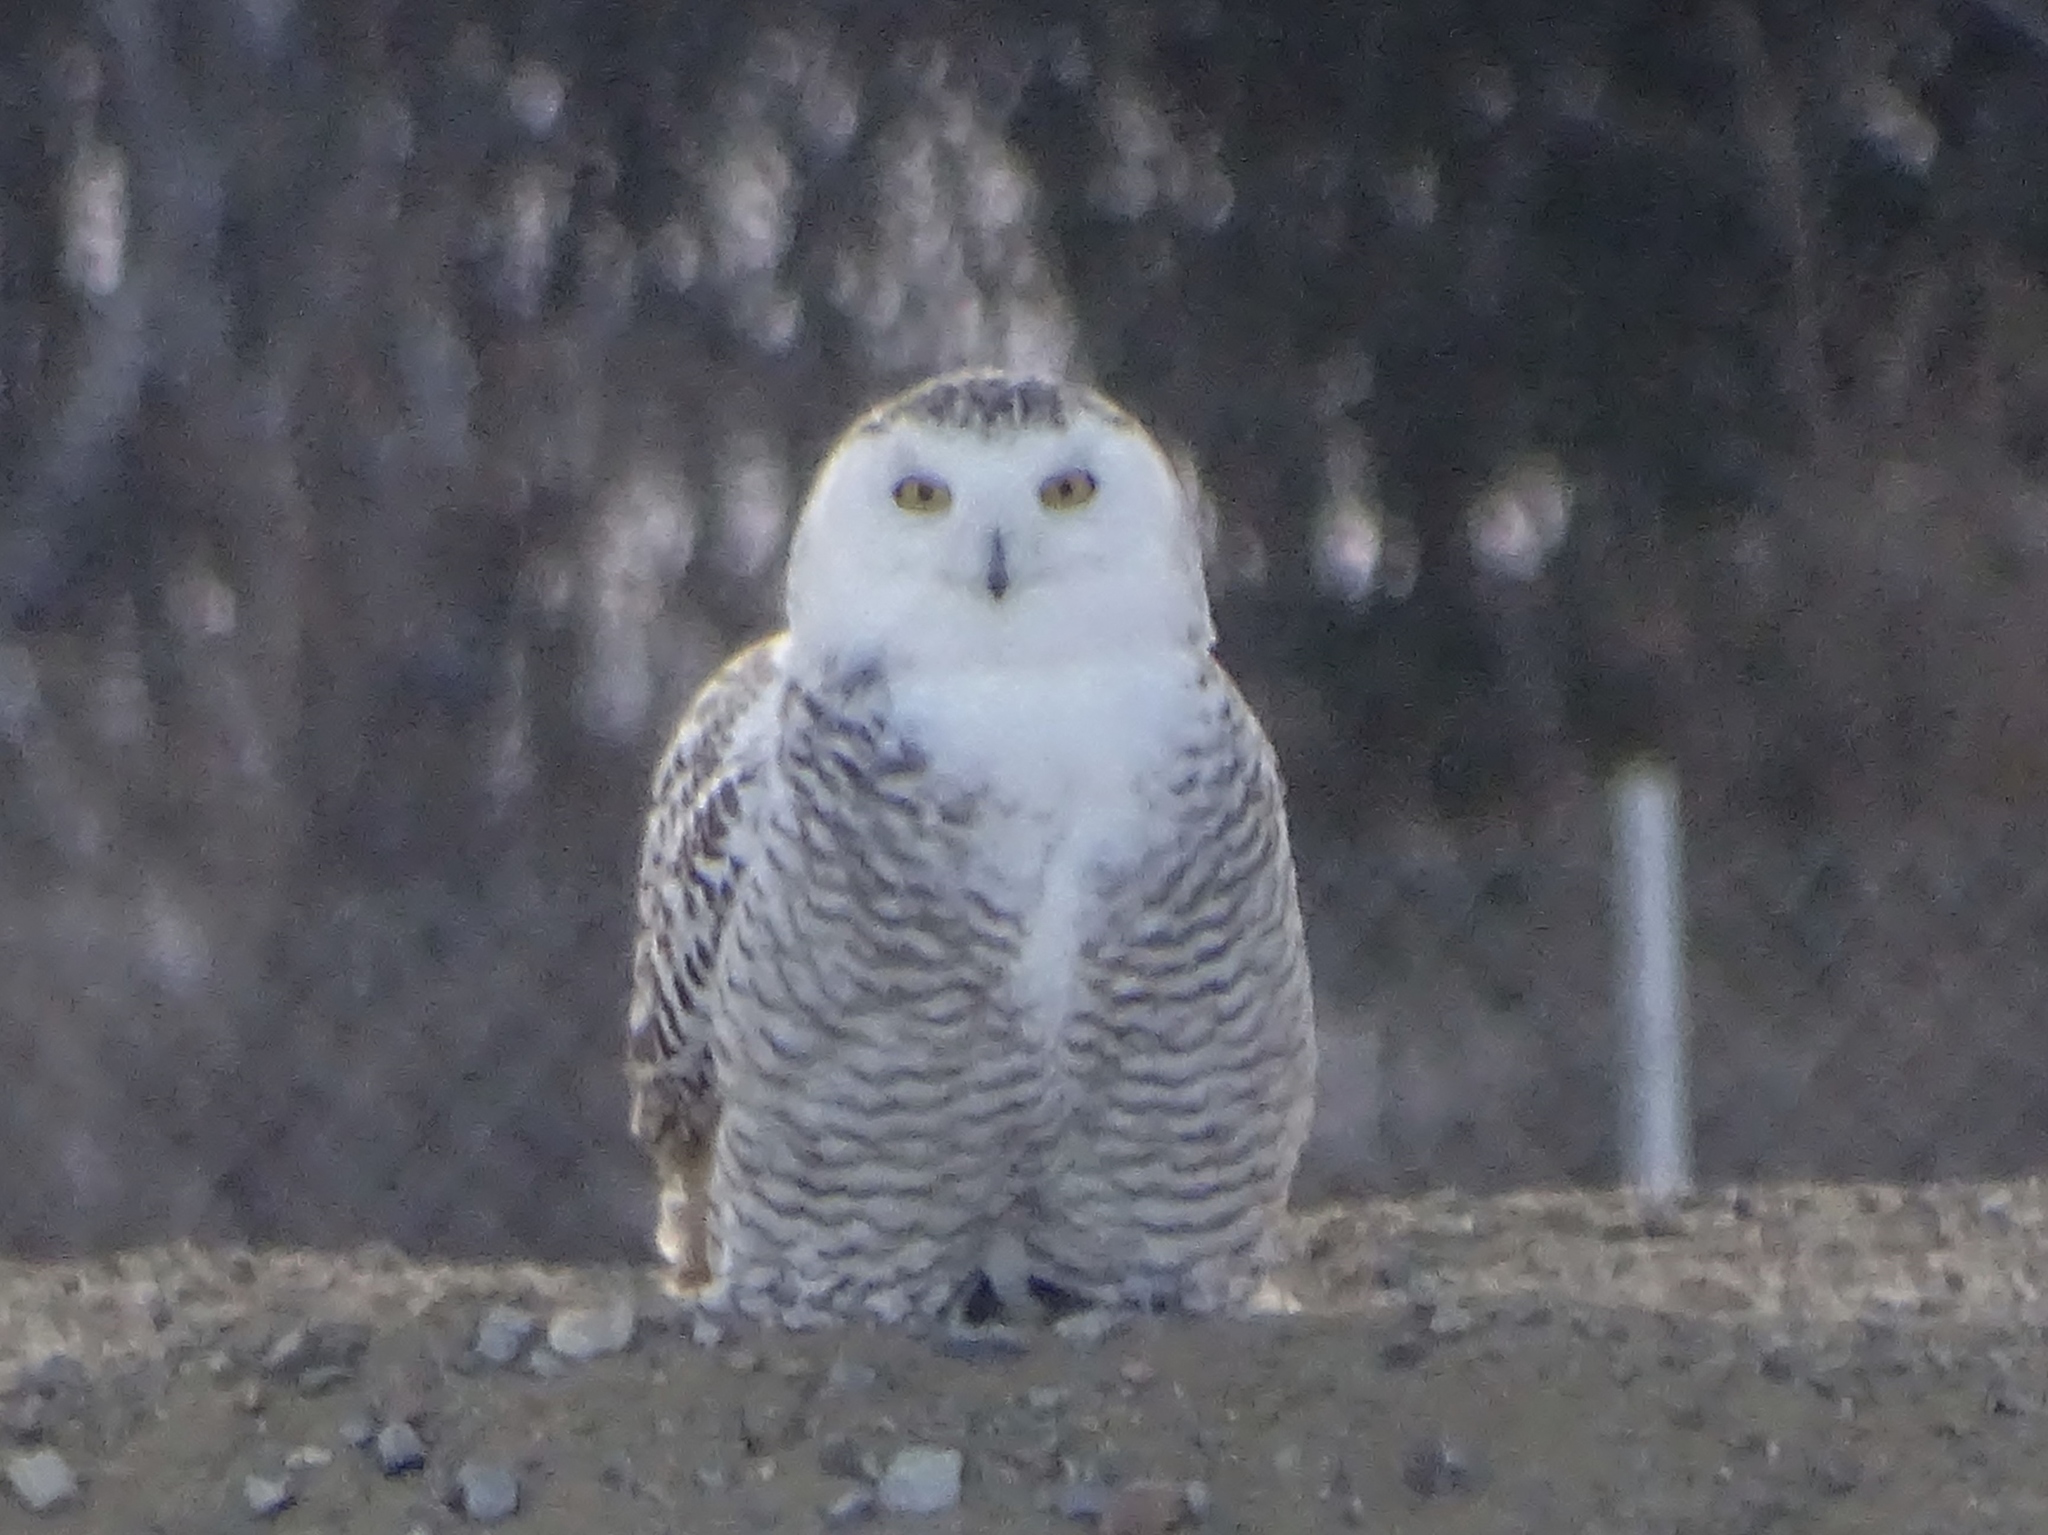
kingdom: Animalia
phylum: Chordata
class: Aves
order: Strigiformes
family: Strigidae
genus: Bubo
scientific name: Bubo scandiacus
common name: Snowy owl
